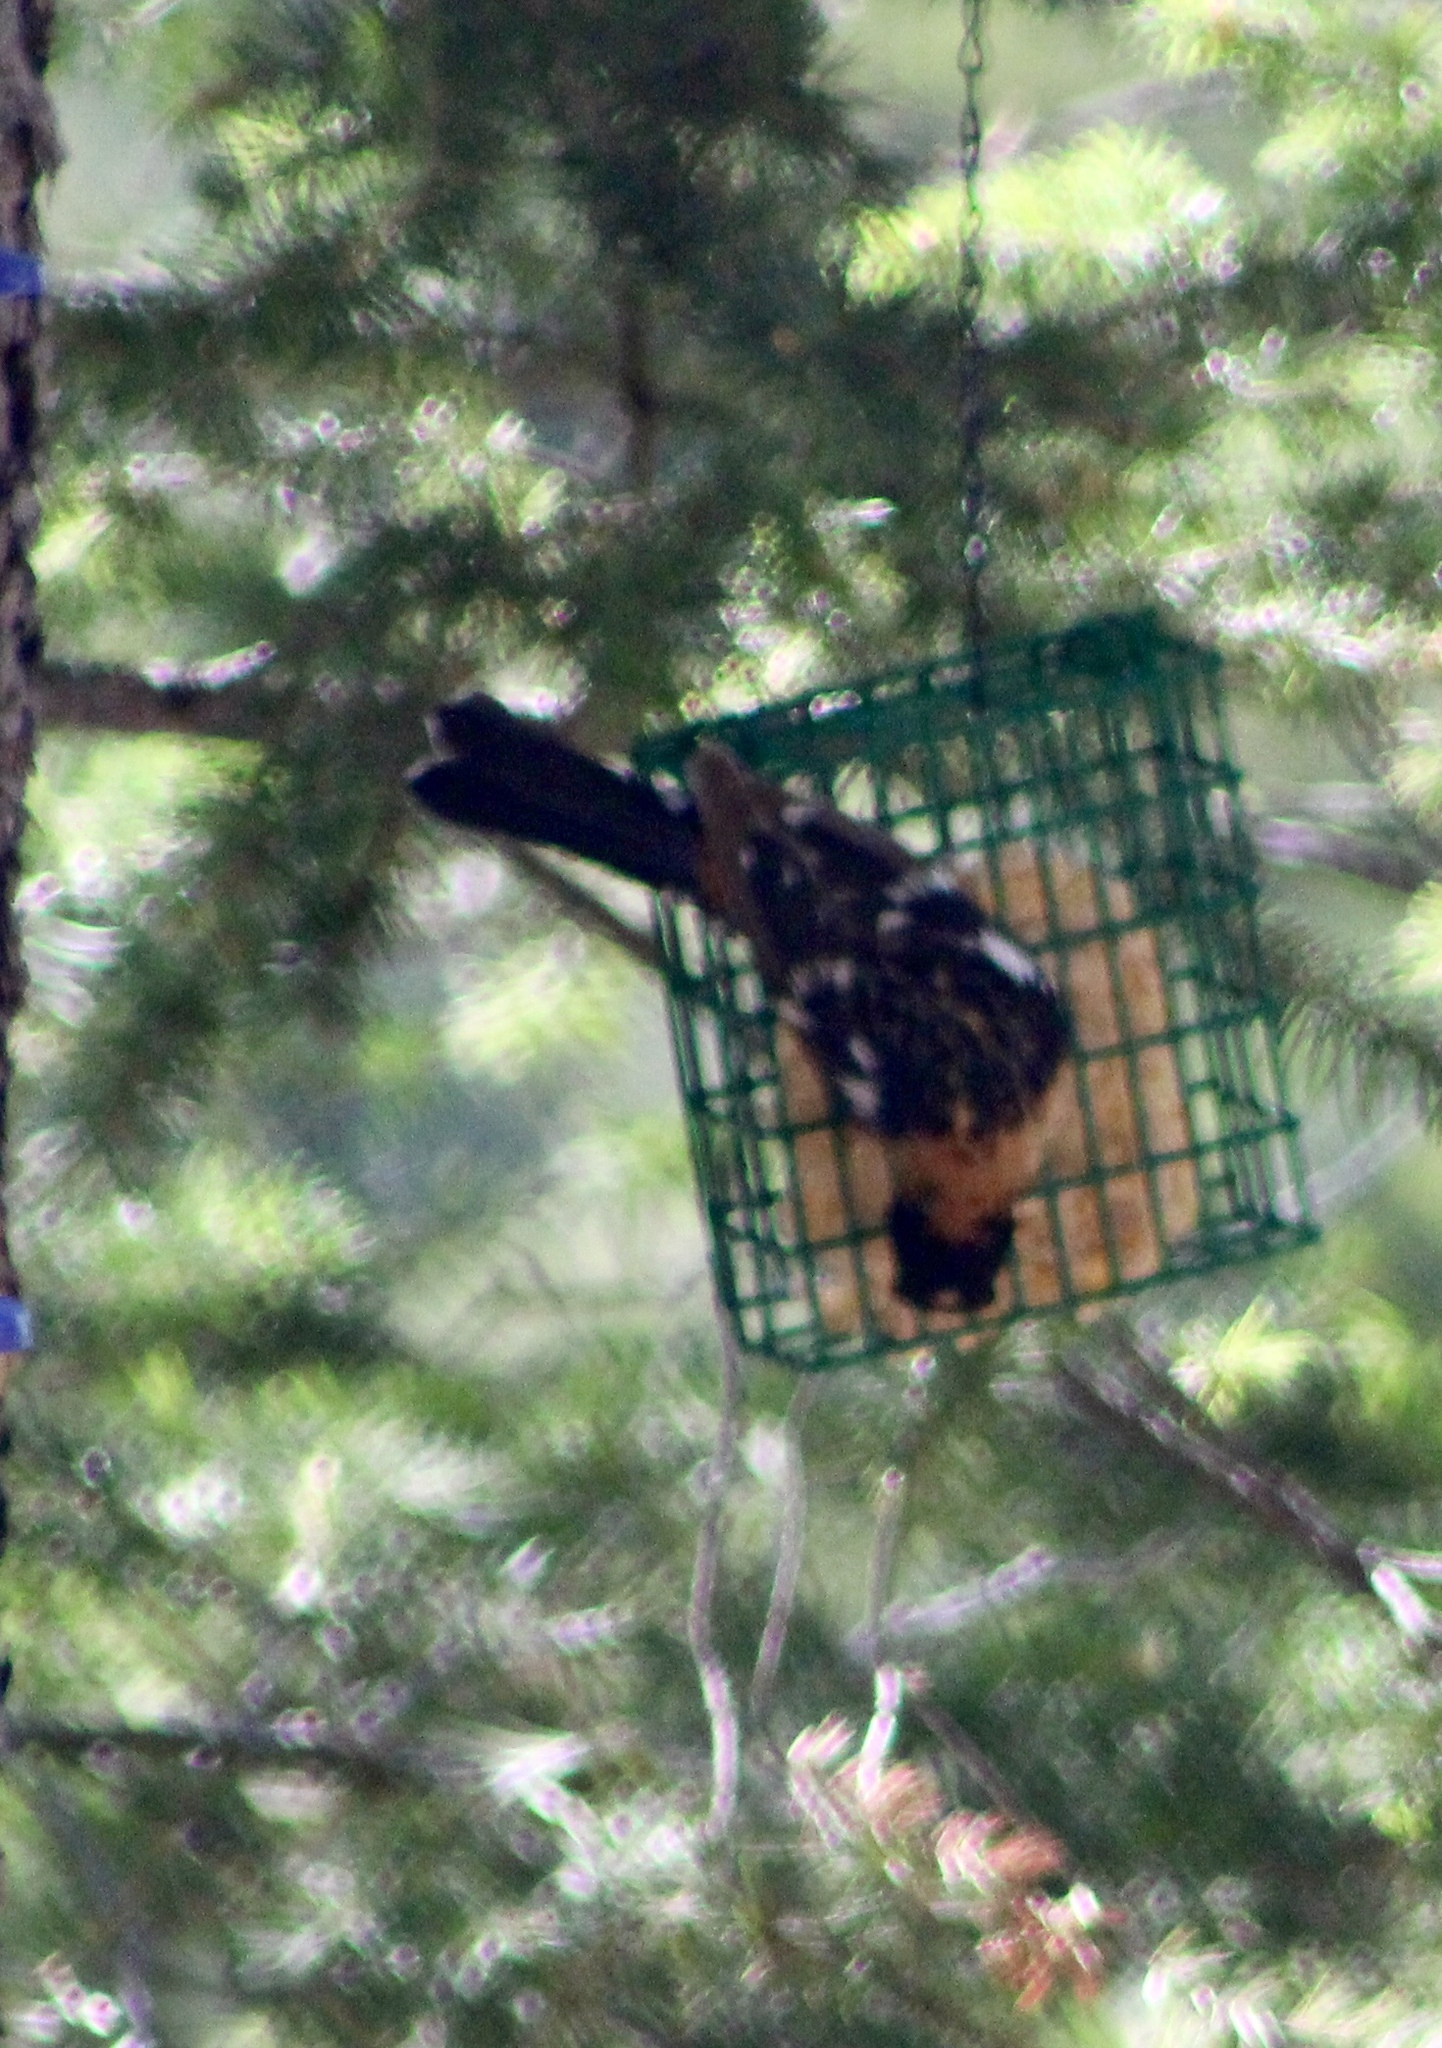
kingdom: Animalia
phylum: Chordata
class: Aves
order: Passeriformes
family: Cardinalidae
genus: Pheucticus
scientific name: Pheucticus melanocephalus
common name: Black-headed grosbeak
